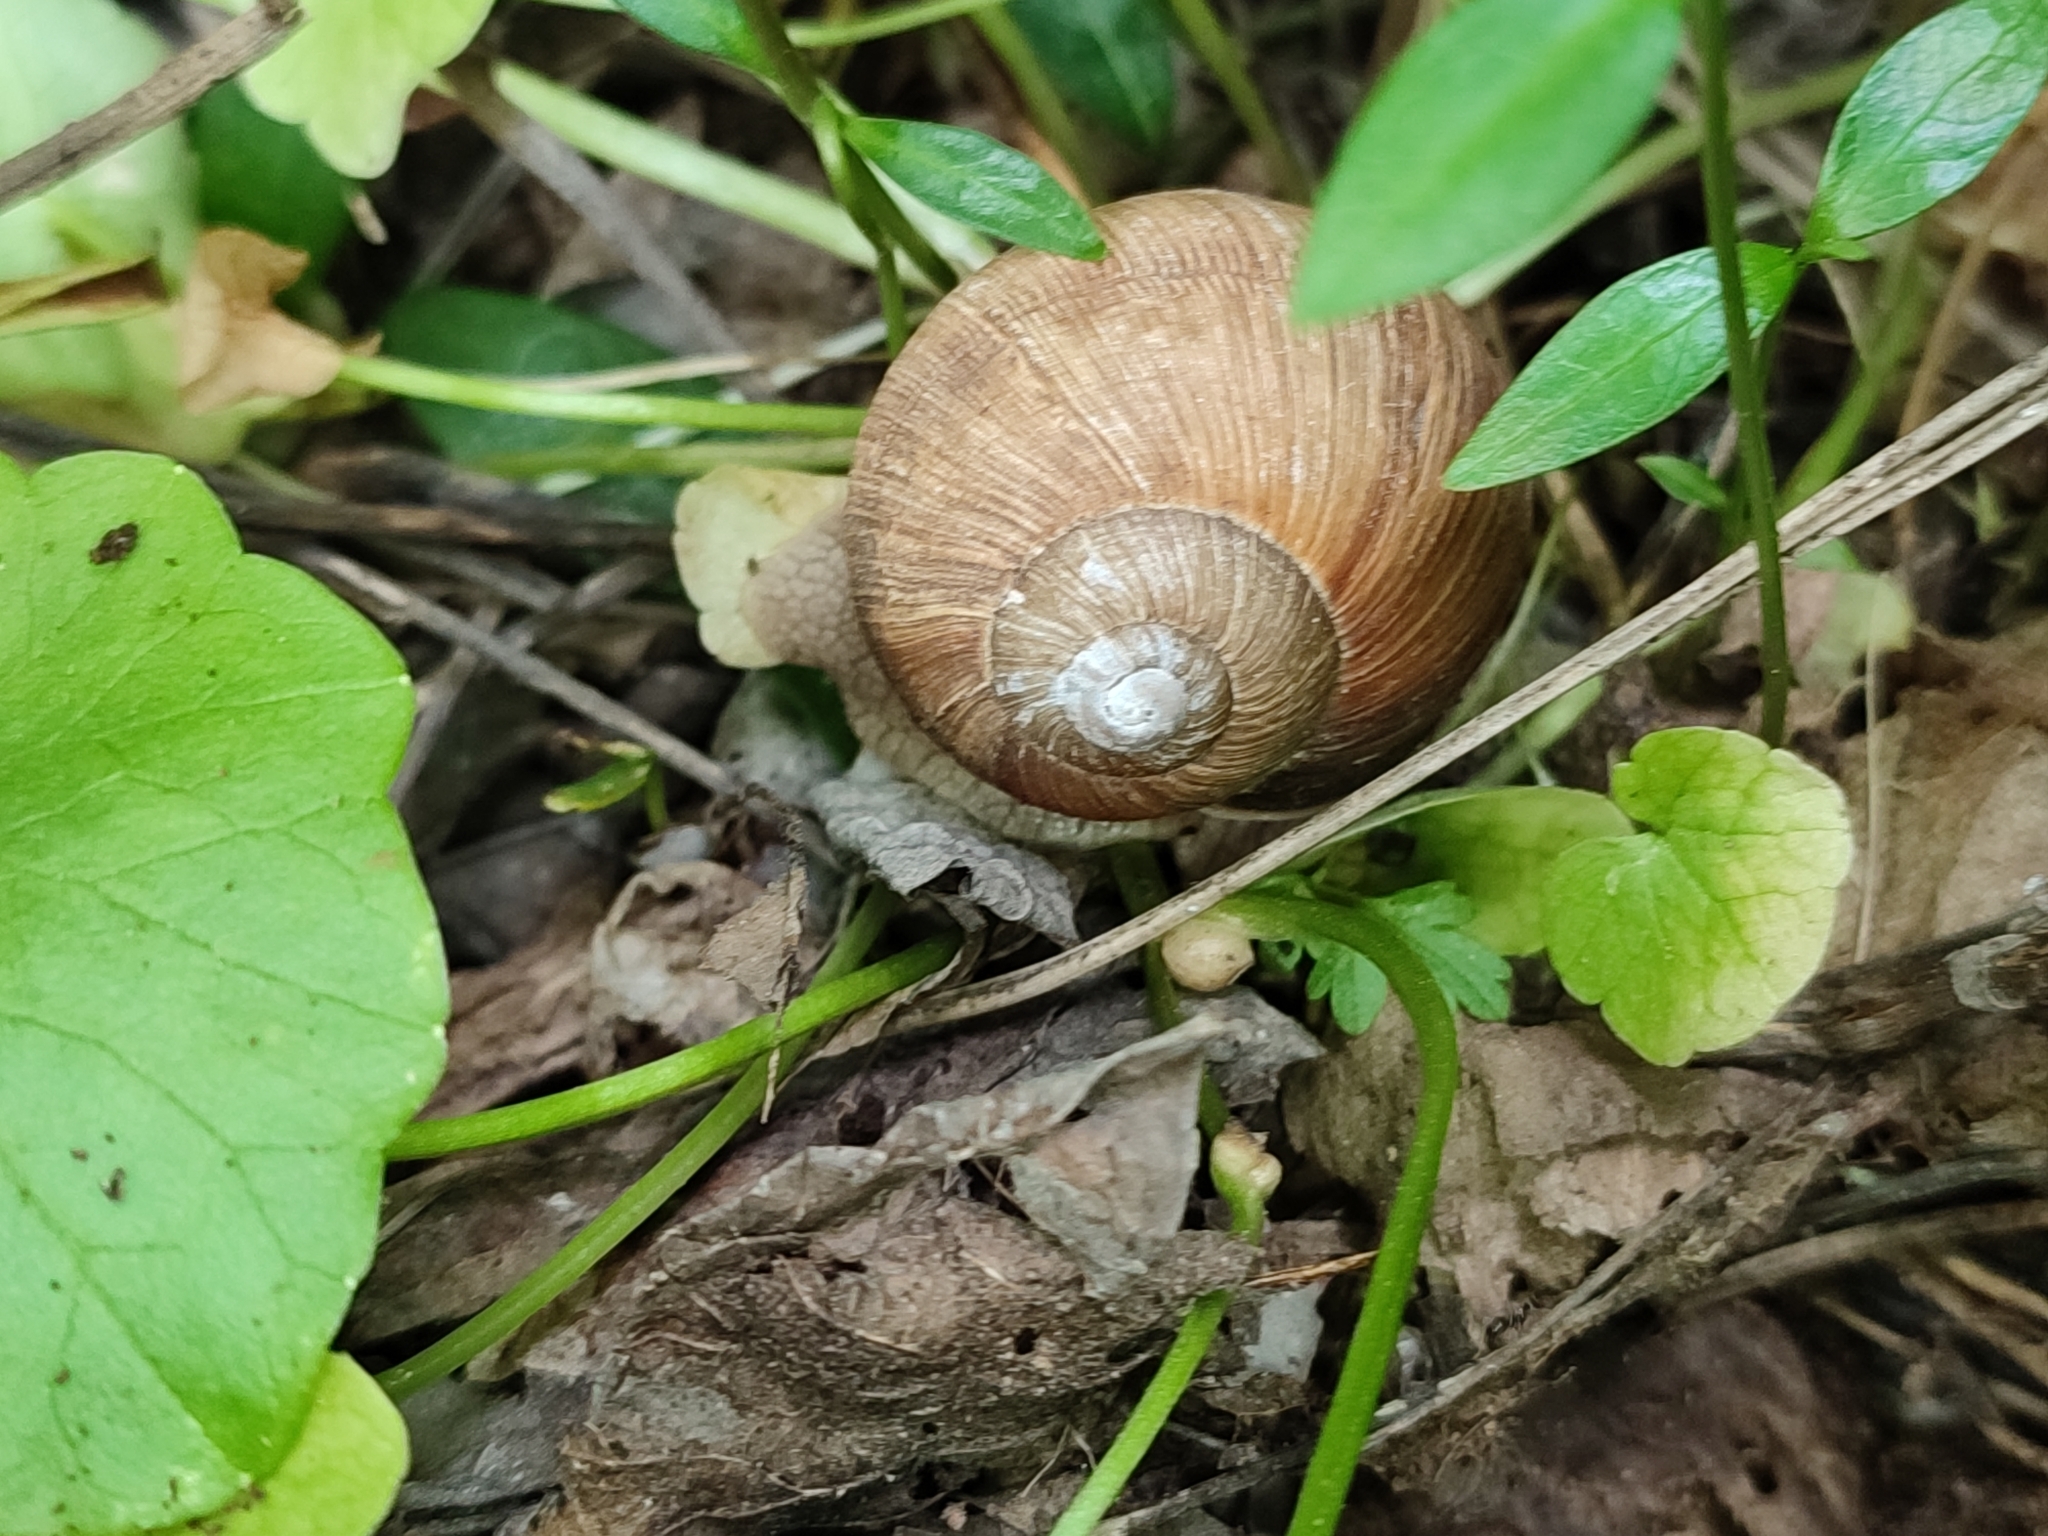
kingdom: Animalia
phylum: Mollusca
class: Gastropoda
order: Stylommatophora
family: Helicidae
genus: Helix
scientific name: Helix pomatia
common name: Roman snail
